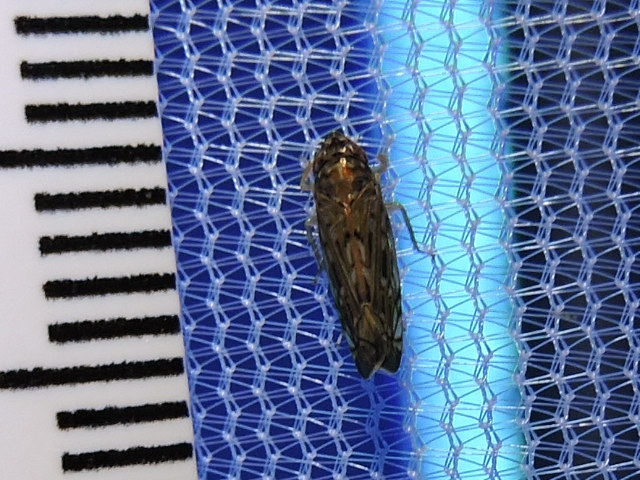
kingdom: Animalia
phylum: Arthropoda
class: Insecta
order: Hemiptera
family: Cicadellidae
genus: Scaphoideus
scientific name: Scaphoideus productus
